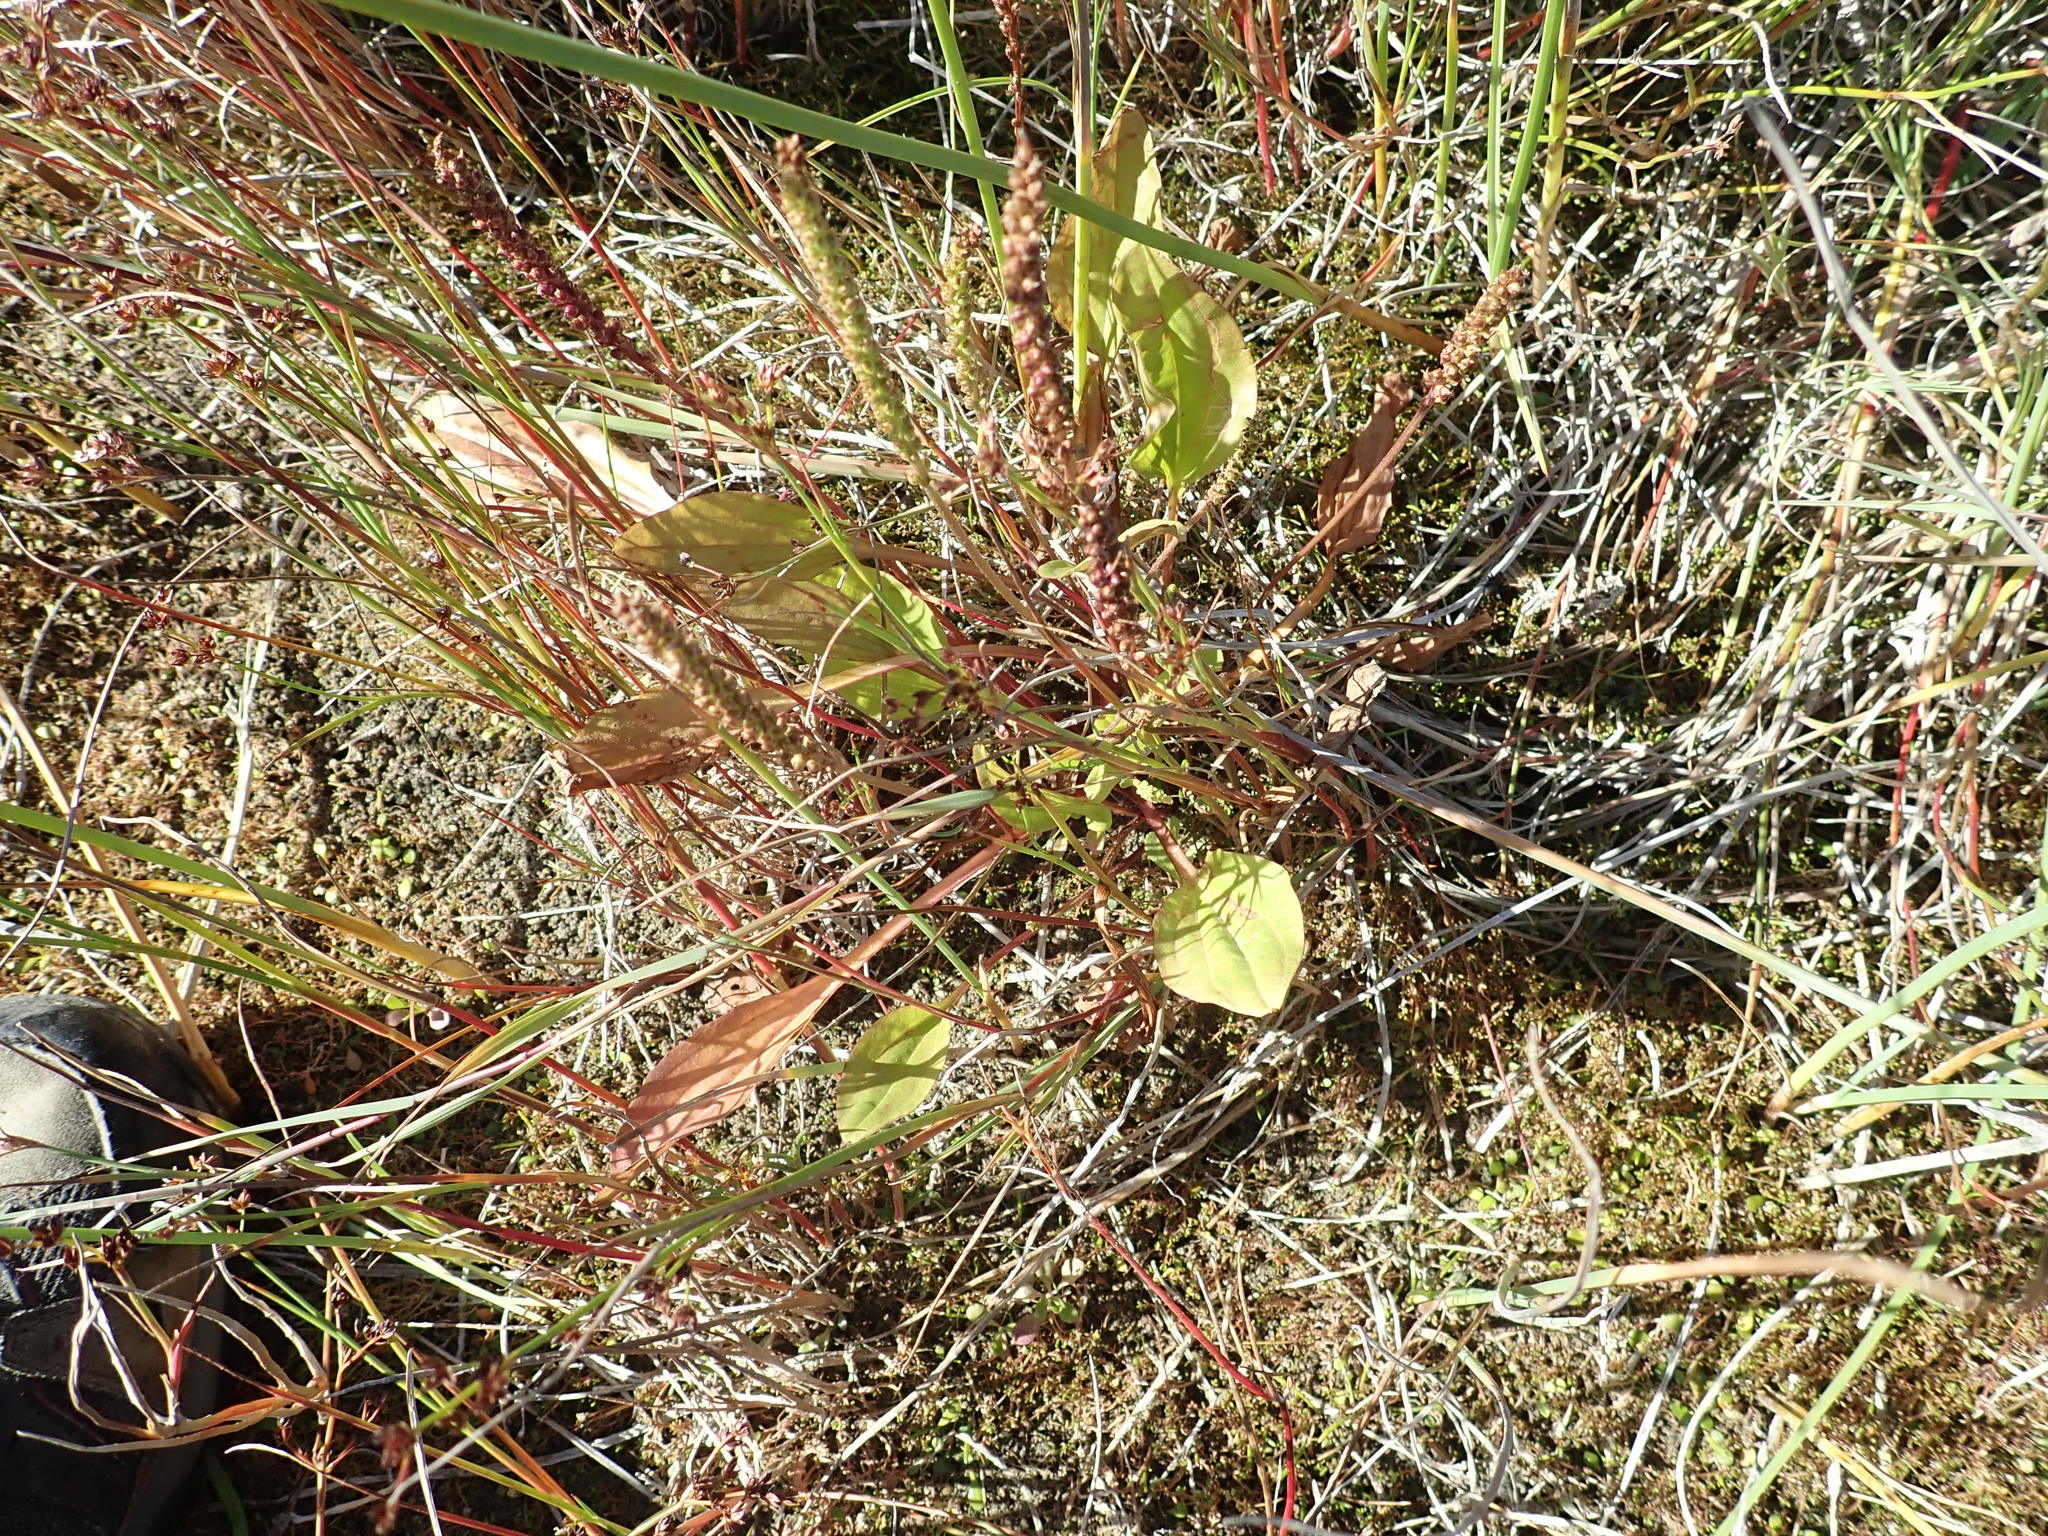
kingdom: Plantae
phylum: Tracheophyta
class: Magnoliopsida
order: Lamiales
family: Plantaginaceae
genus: Plantago
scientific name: Plantago major
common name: Common plantain
